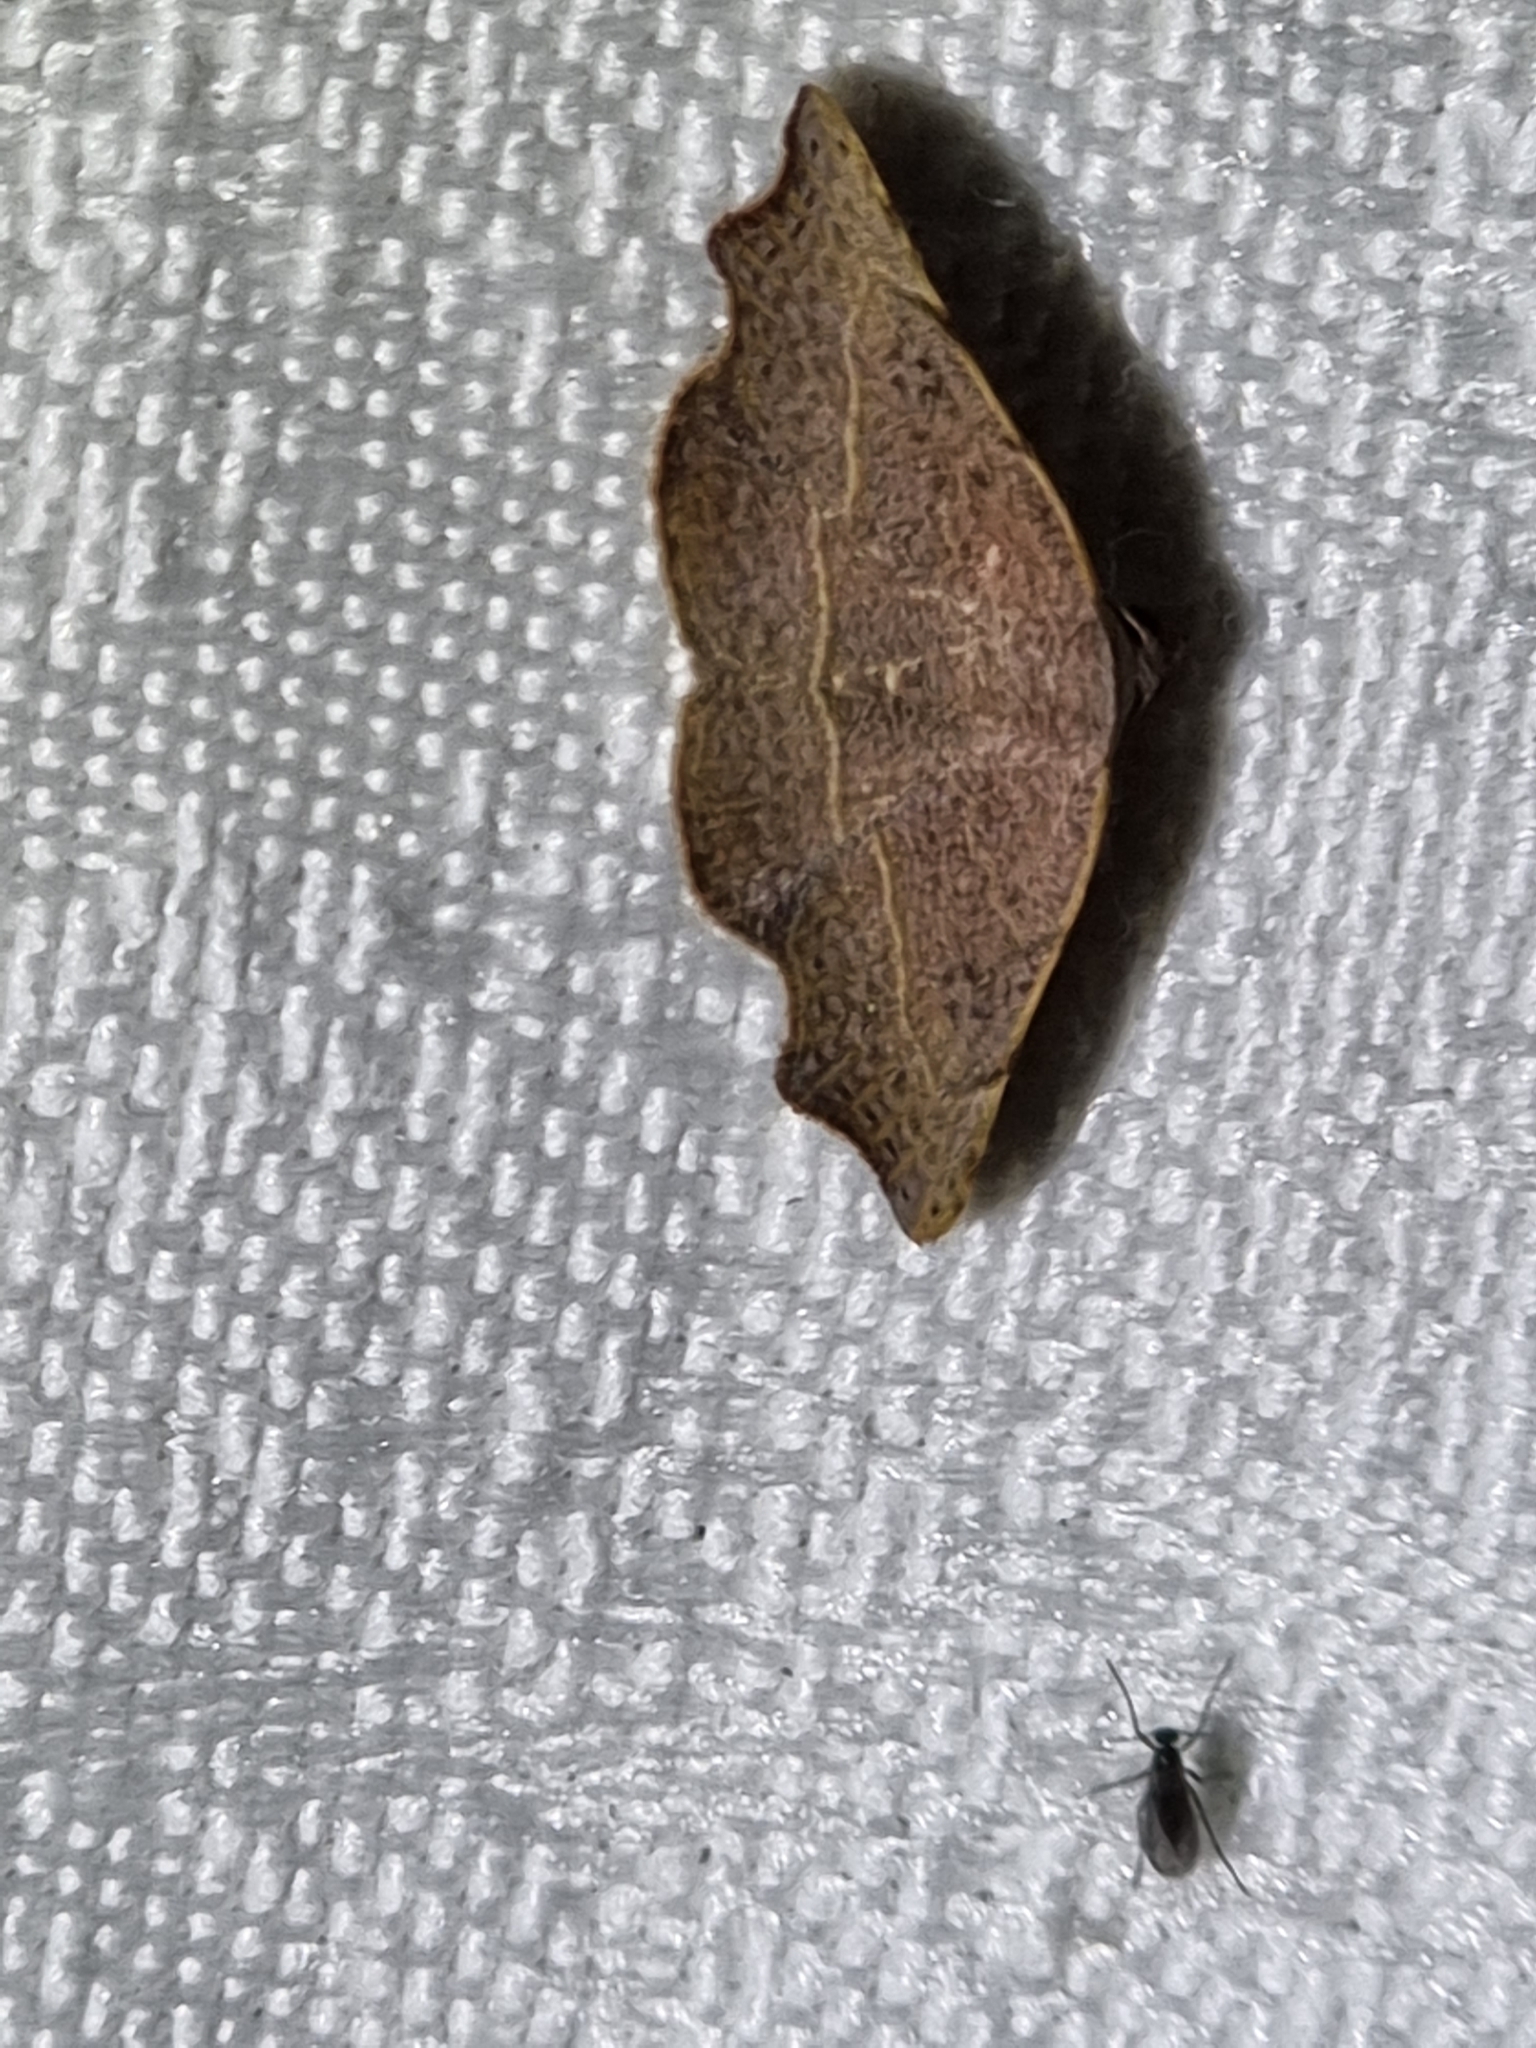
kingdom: Animalia
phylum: Arthropoda
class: Insecta
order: Lepidoptera
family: Erebidae
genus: Laspeyria
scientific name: Laspeyria concavata
